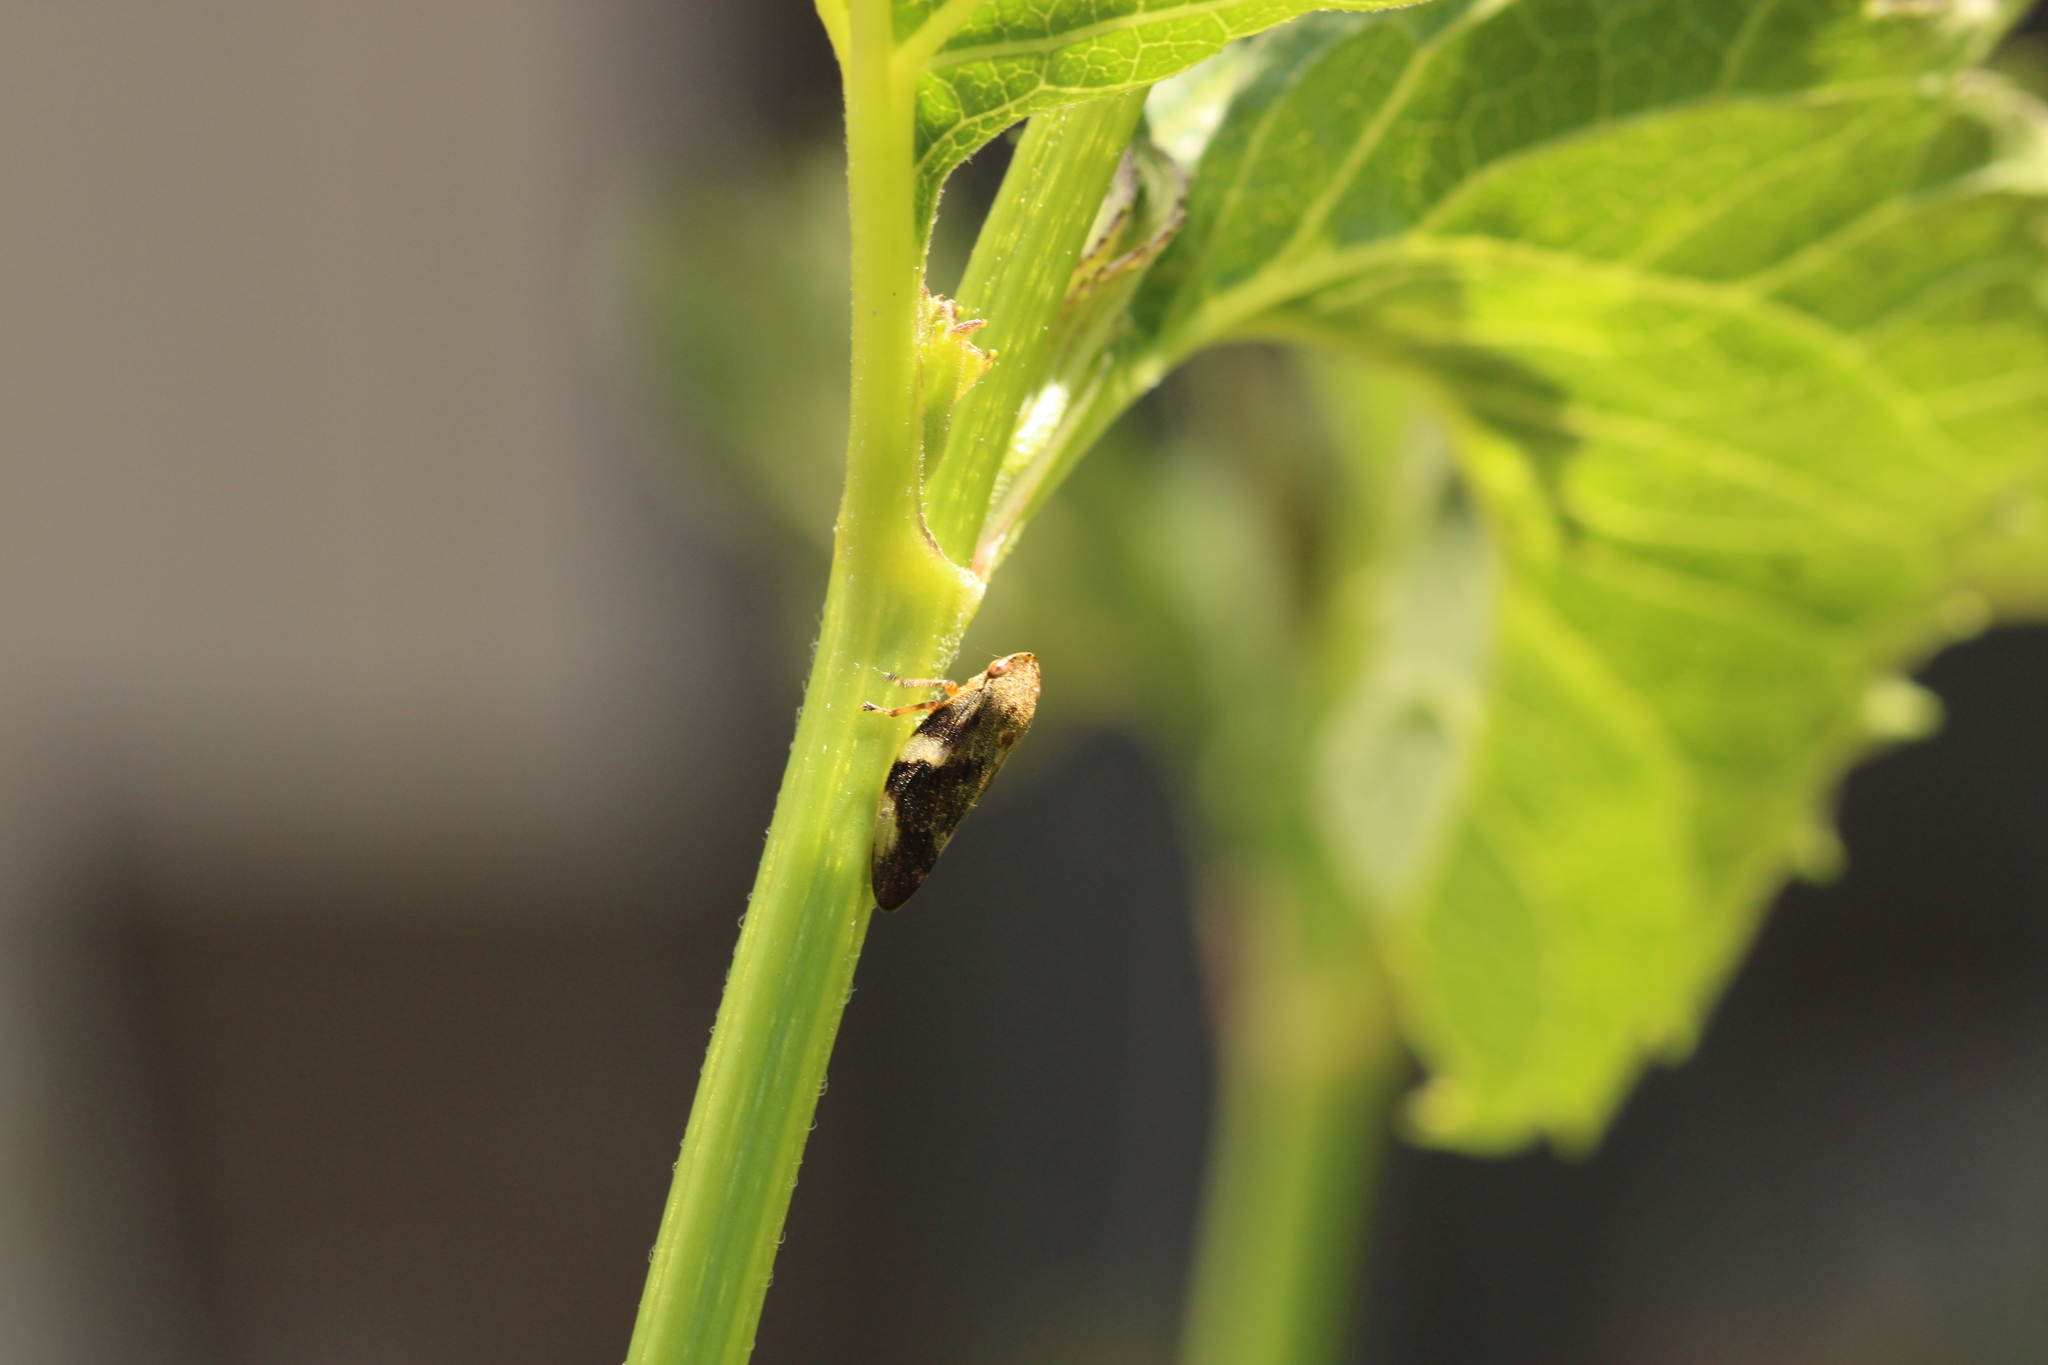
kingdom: Animalia
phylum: Arthropoda
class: Insecta
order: Hemiptera
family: Aphrophoridae
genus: Aphrophora
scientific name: Aphrophora alni
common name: European alder spittlebug
